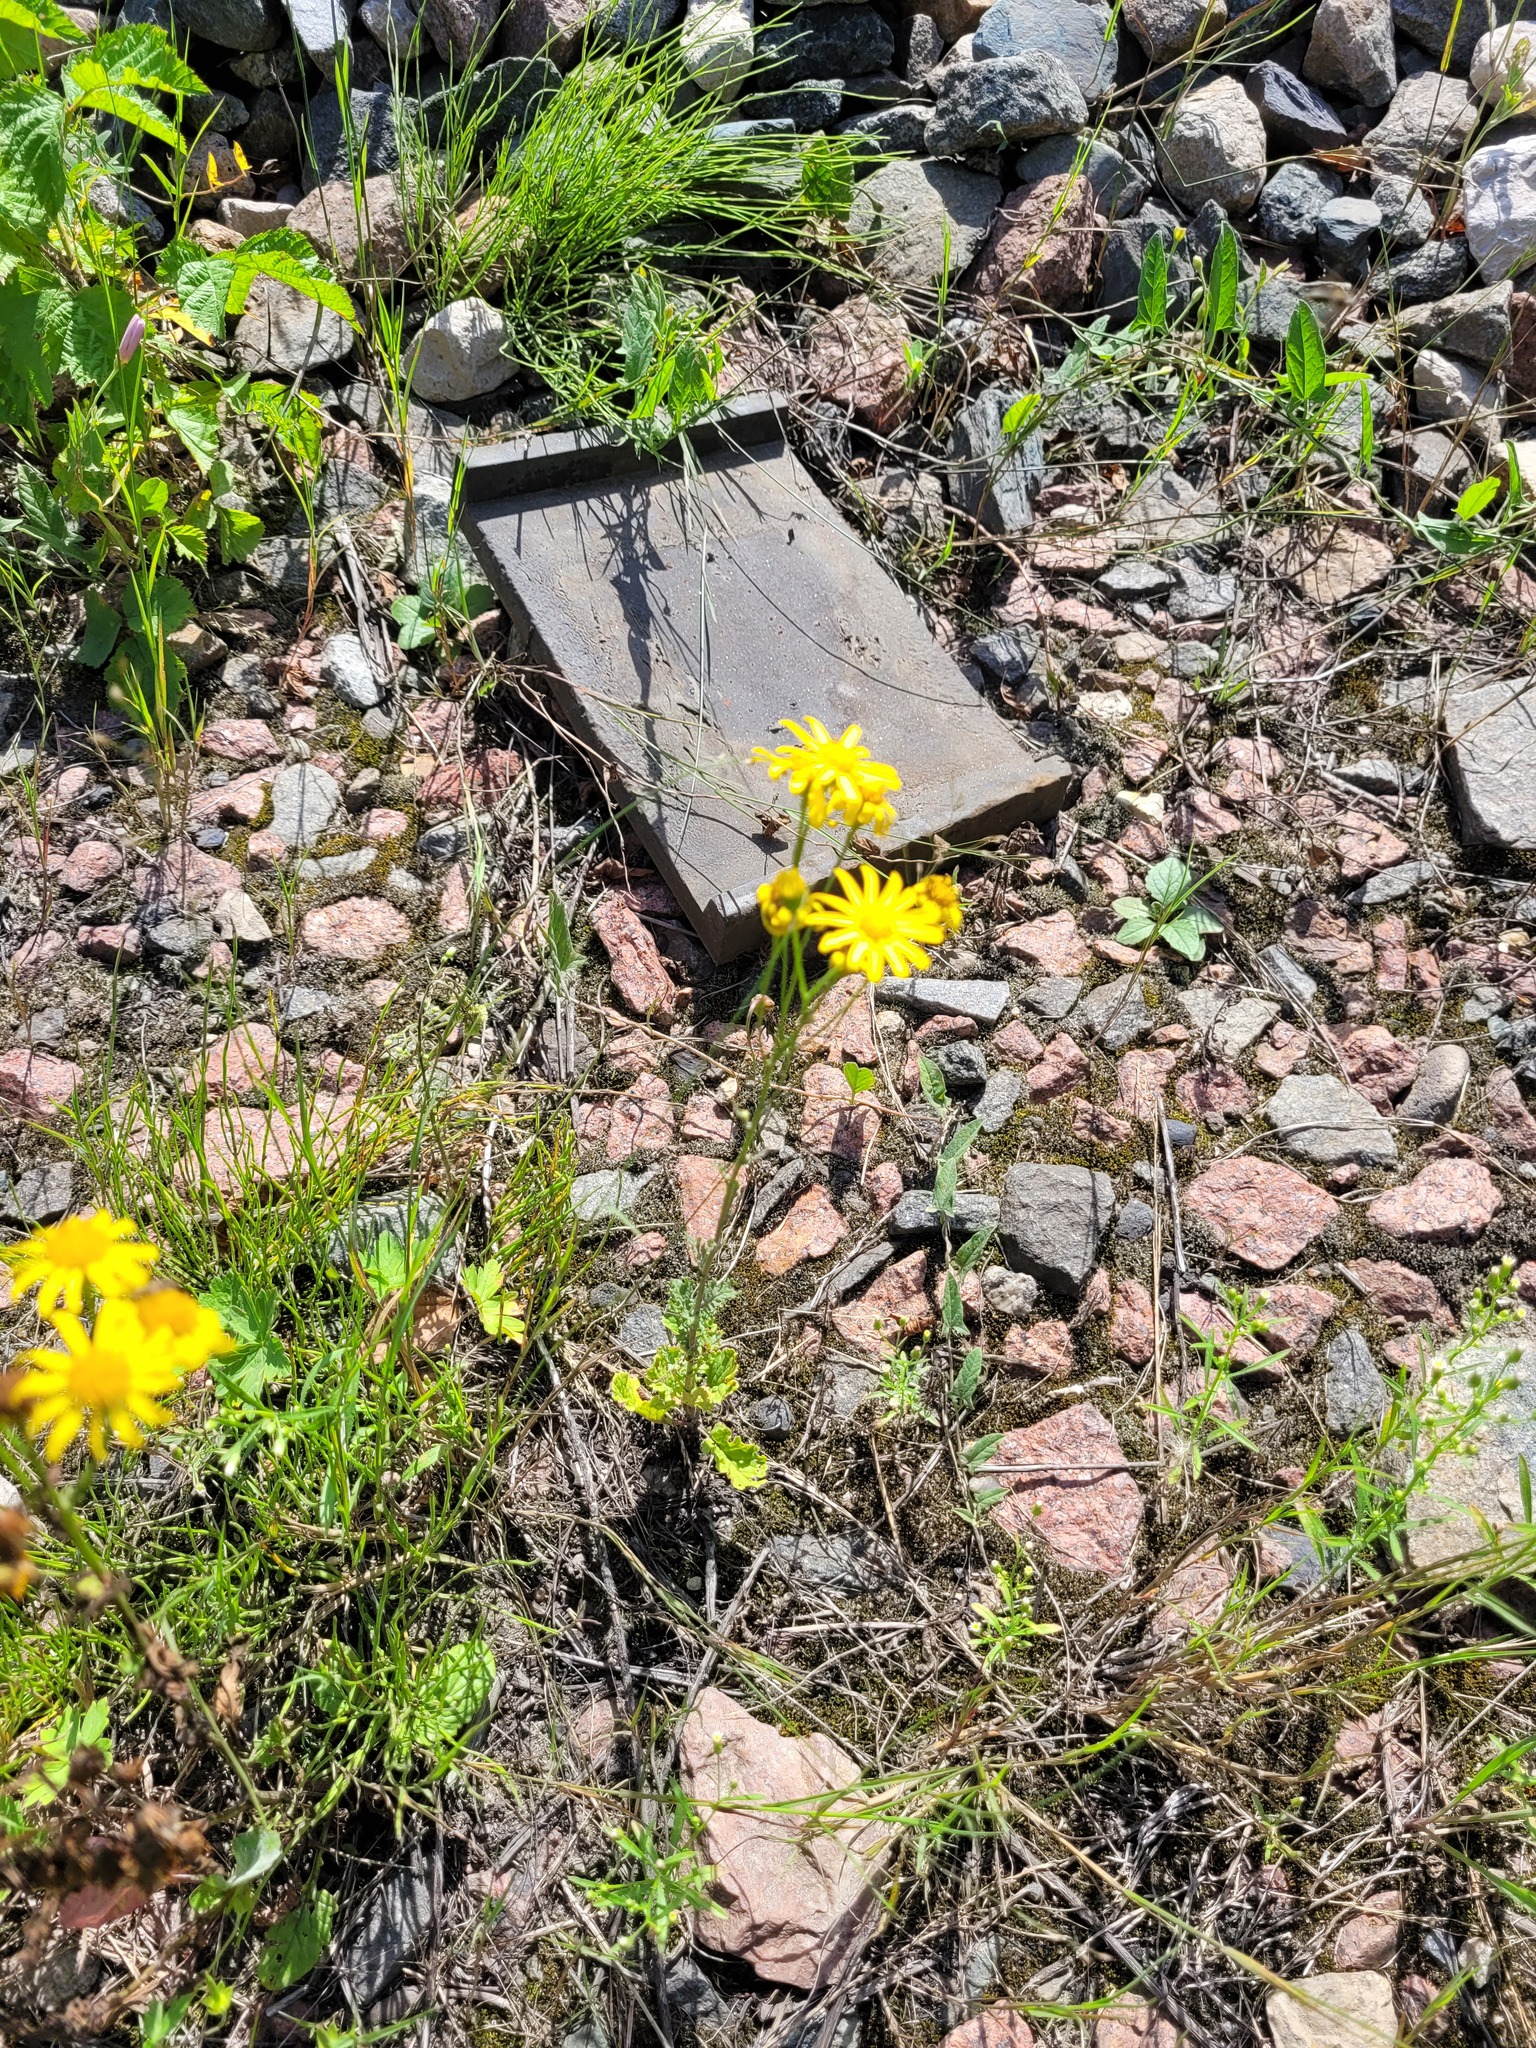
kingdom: Plantae
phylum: Tracheophyta
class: Magnoliopsida
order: Asterales
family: Asteraceae
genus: Jacobaea
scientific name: Jacobaea vulgaris
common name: Stinking willie
